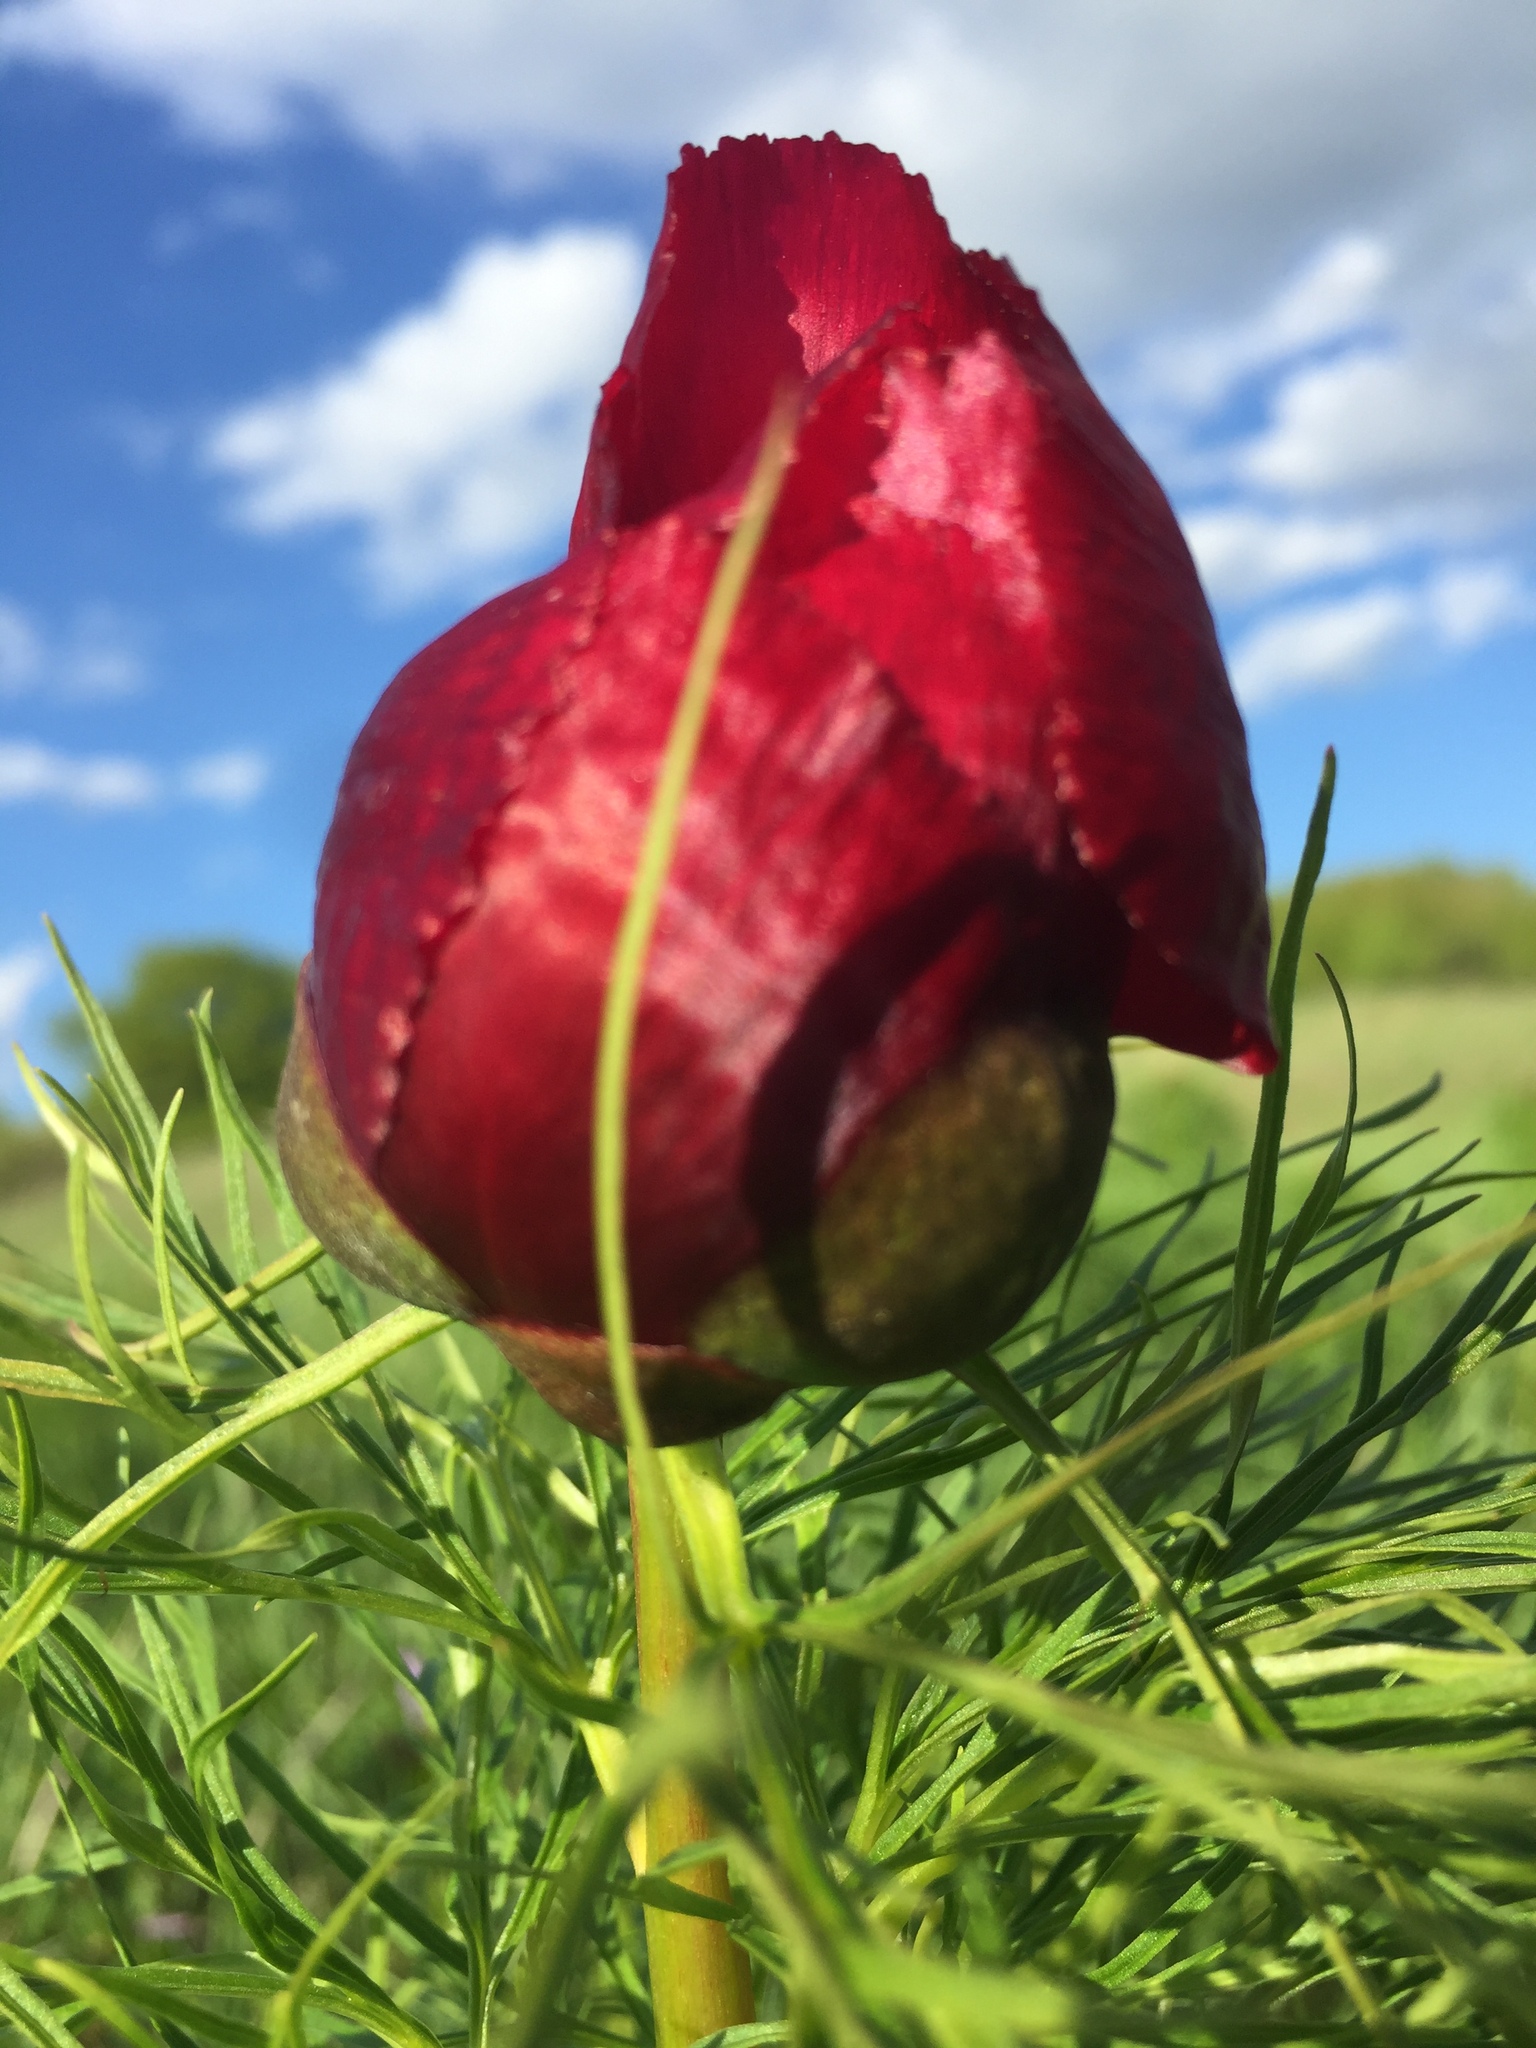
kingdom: Plantae
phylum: Tracheophyta
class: Magnoliopsida
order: Saxifragales
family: Paeoniaceae
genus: Paeonia
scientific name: Paeonia tenuifolia
